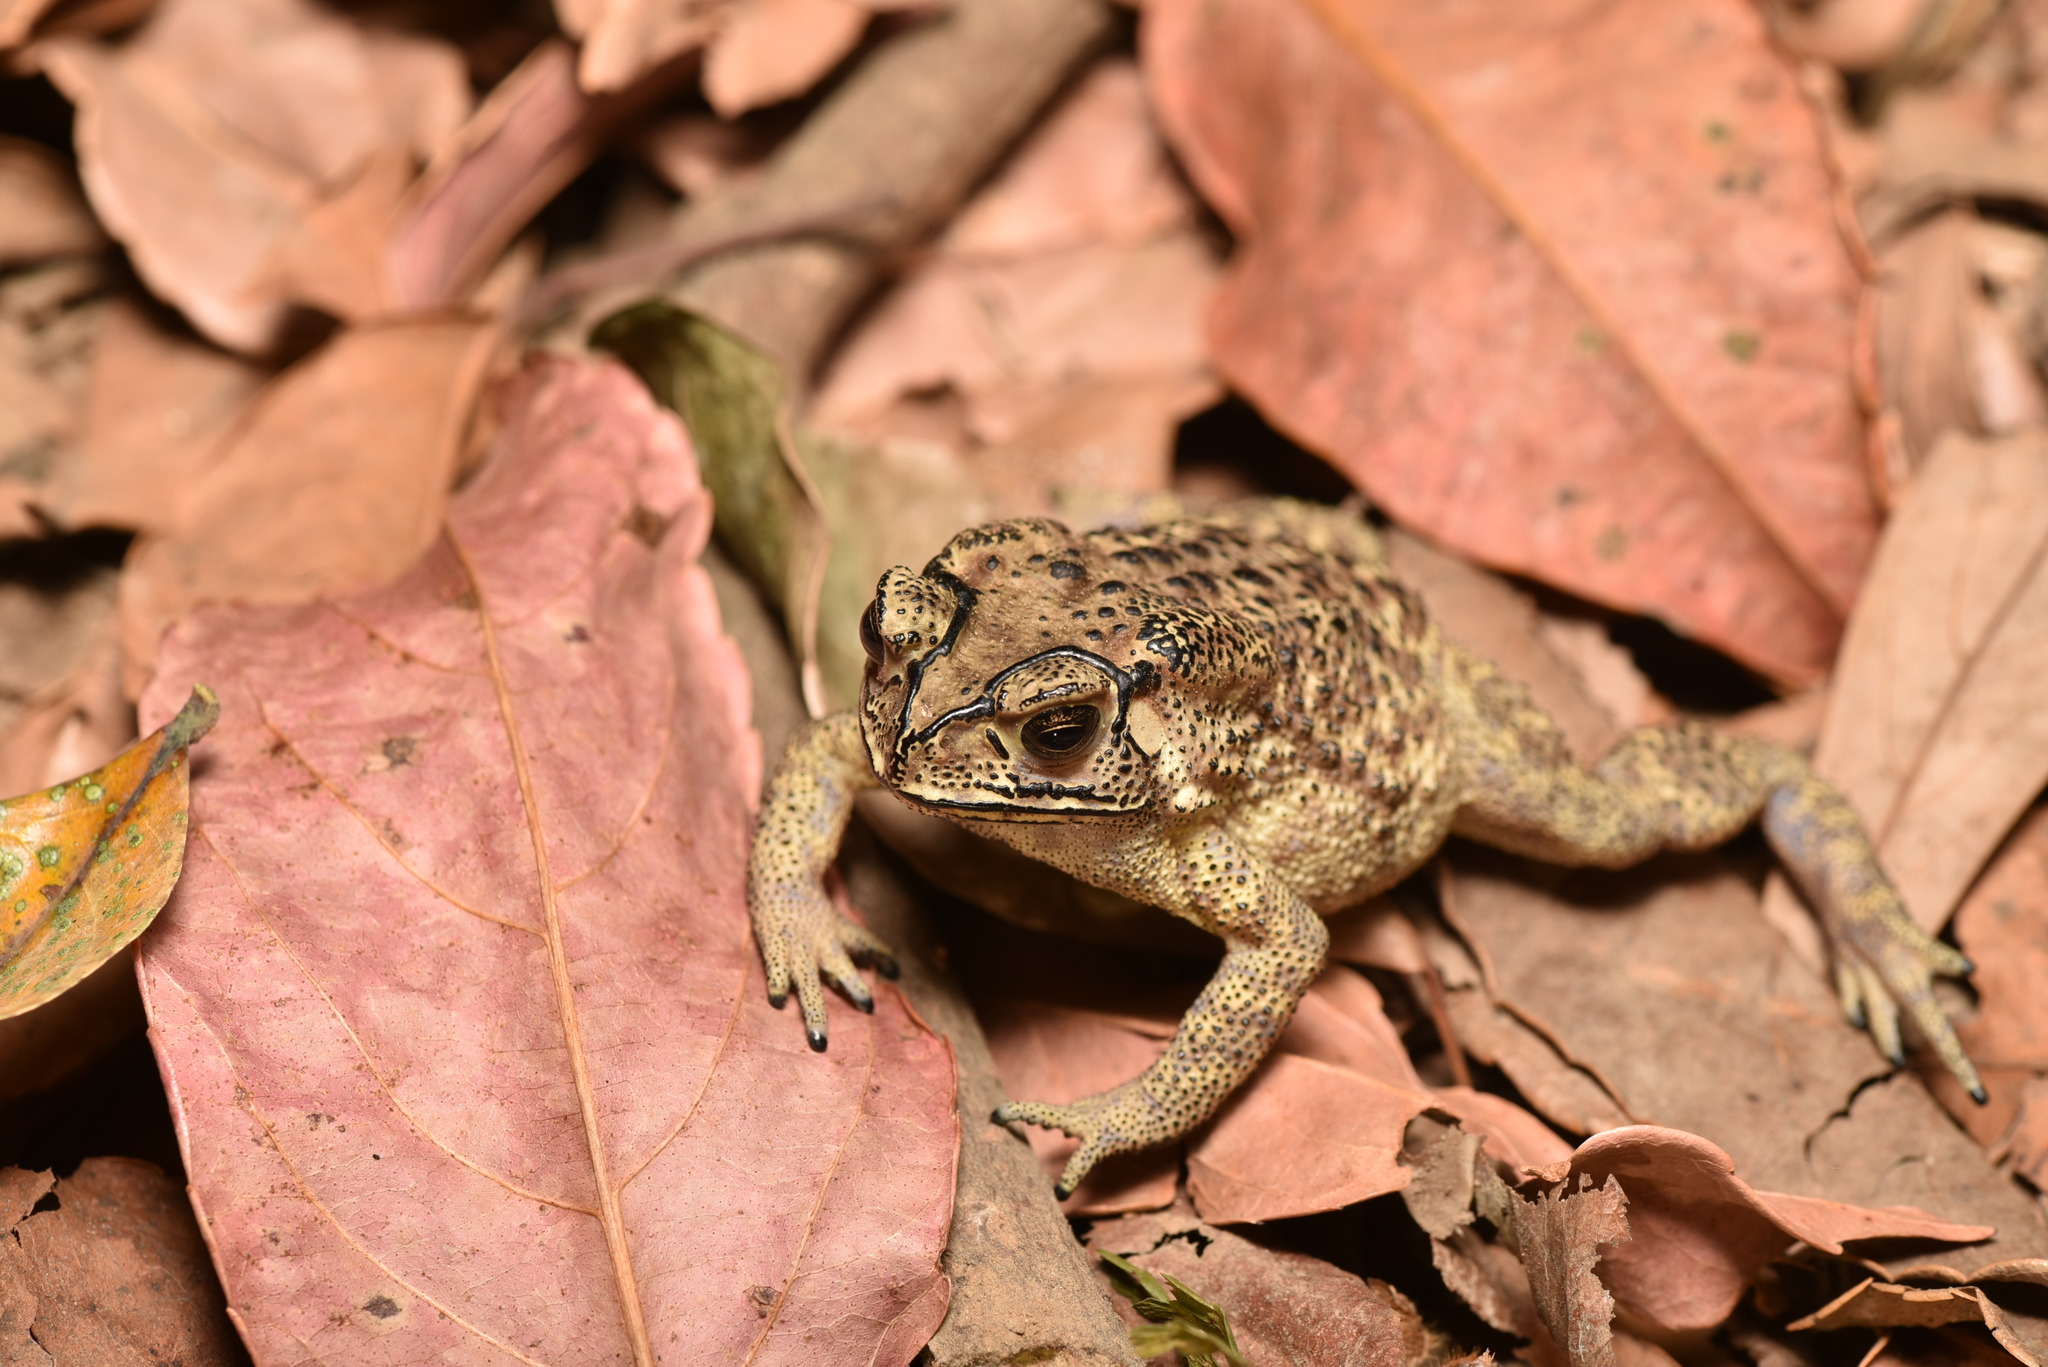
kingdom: Animalia
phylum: Chordata
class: Amphibia
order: Anura
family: Bufonidae
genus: Duttaphrynus
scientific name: Duttaphrynus melanostictus
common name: Common sunda toad
